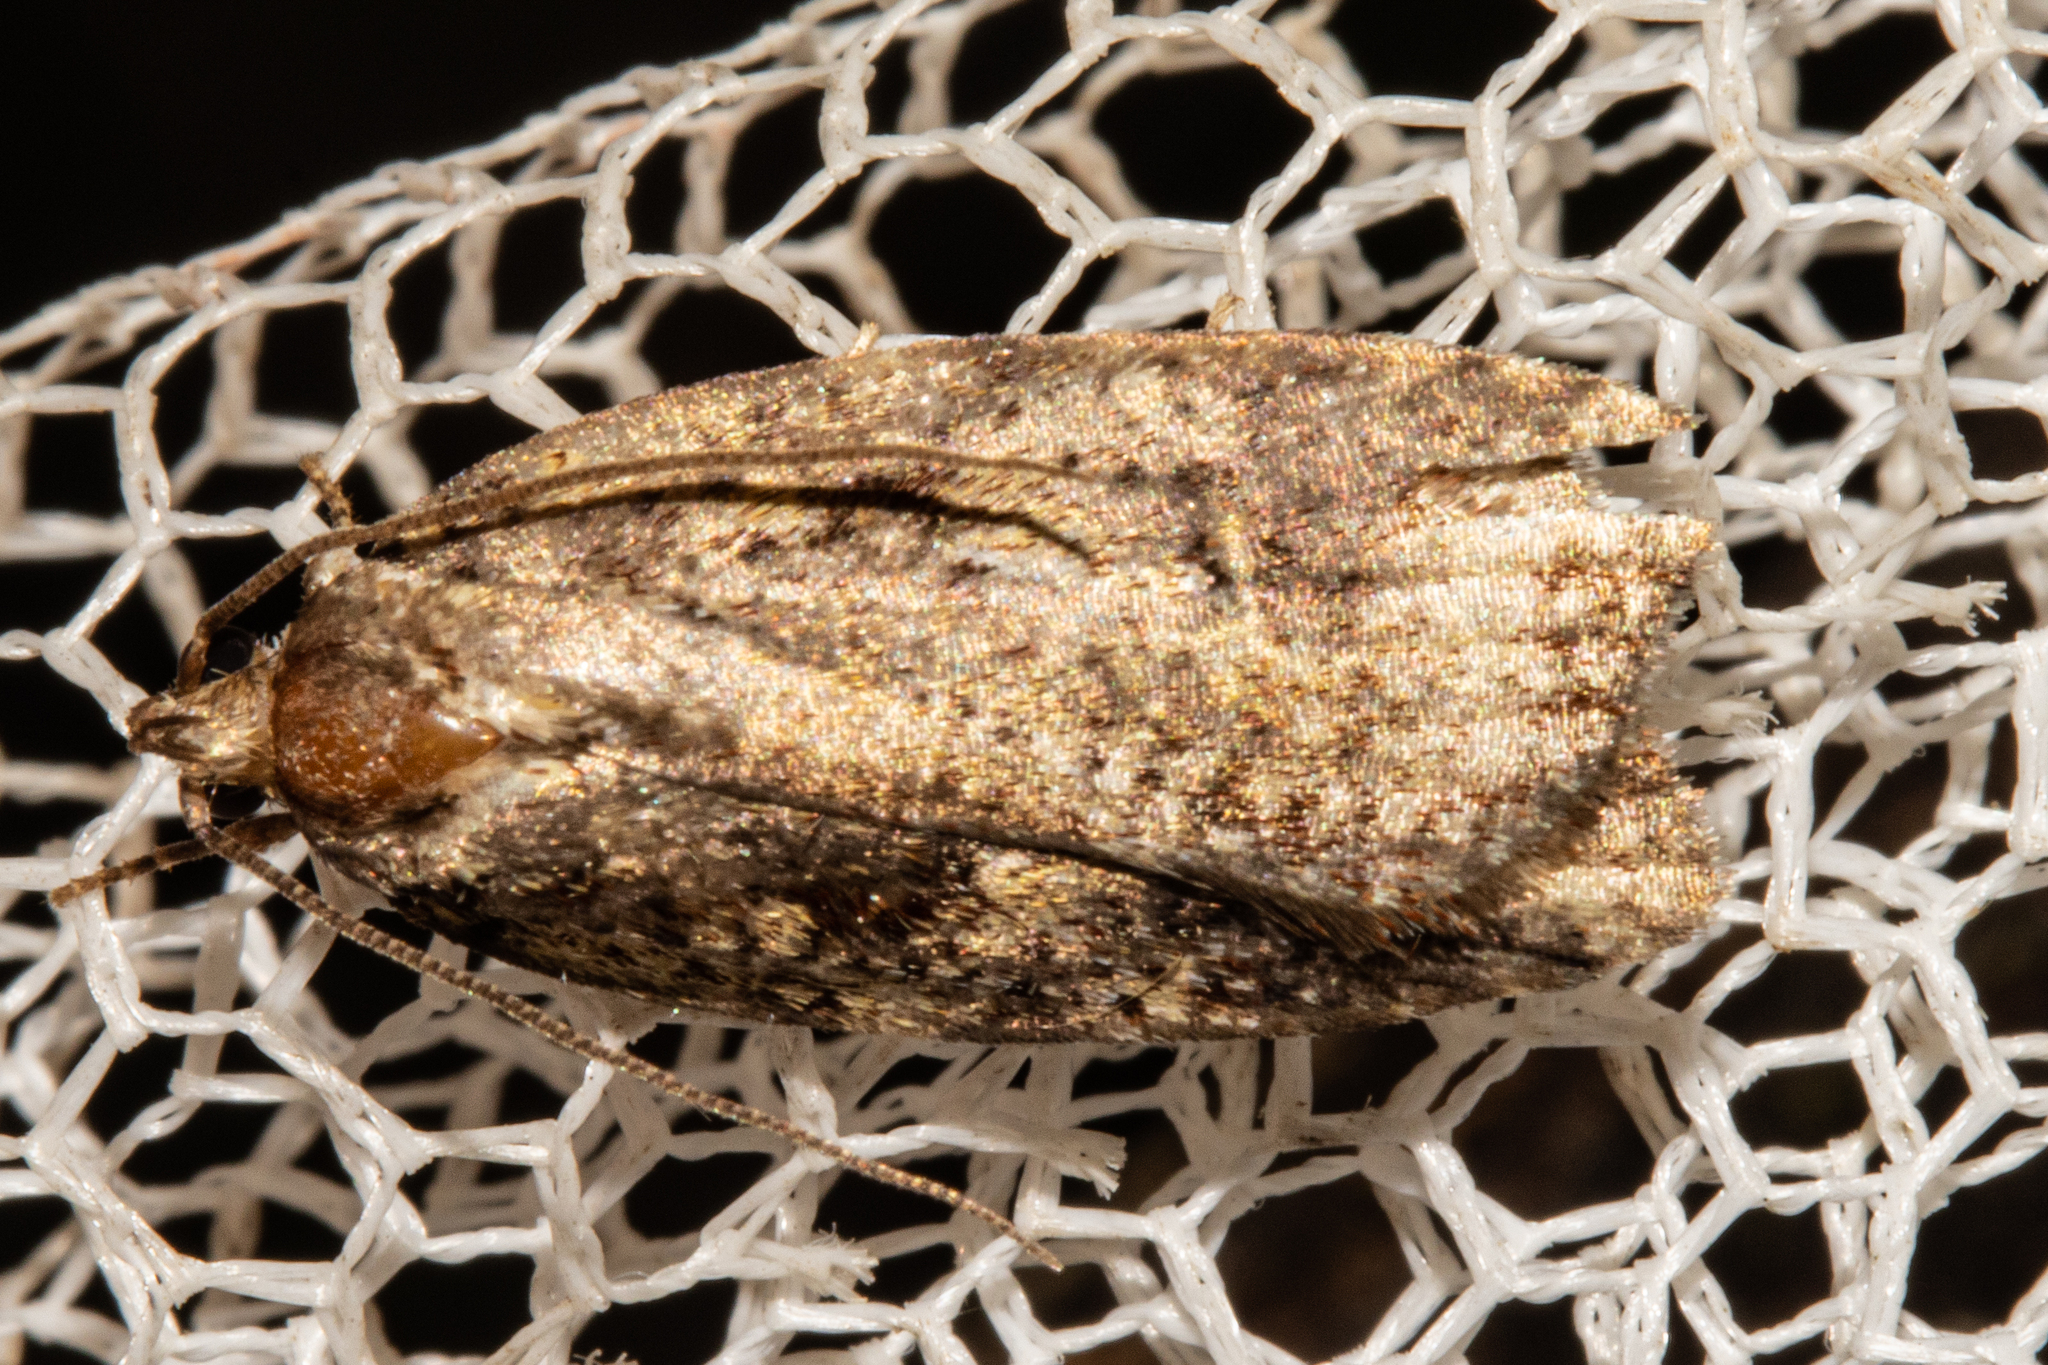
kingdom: Animalia
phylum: Arthropoda
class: Insecta
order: Lepidoptera
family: Oecophoridae
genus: Proteodes
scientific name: Proteodes profunda
